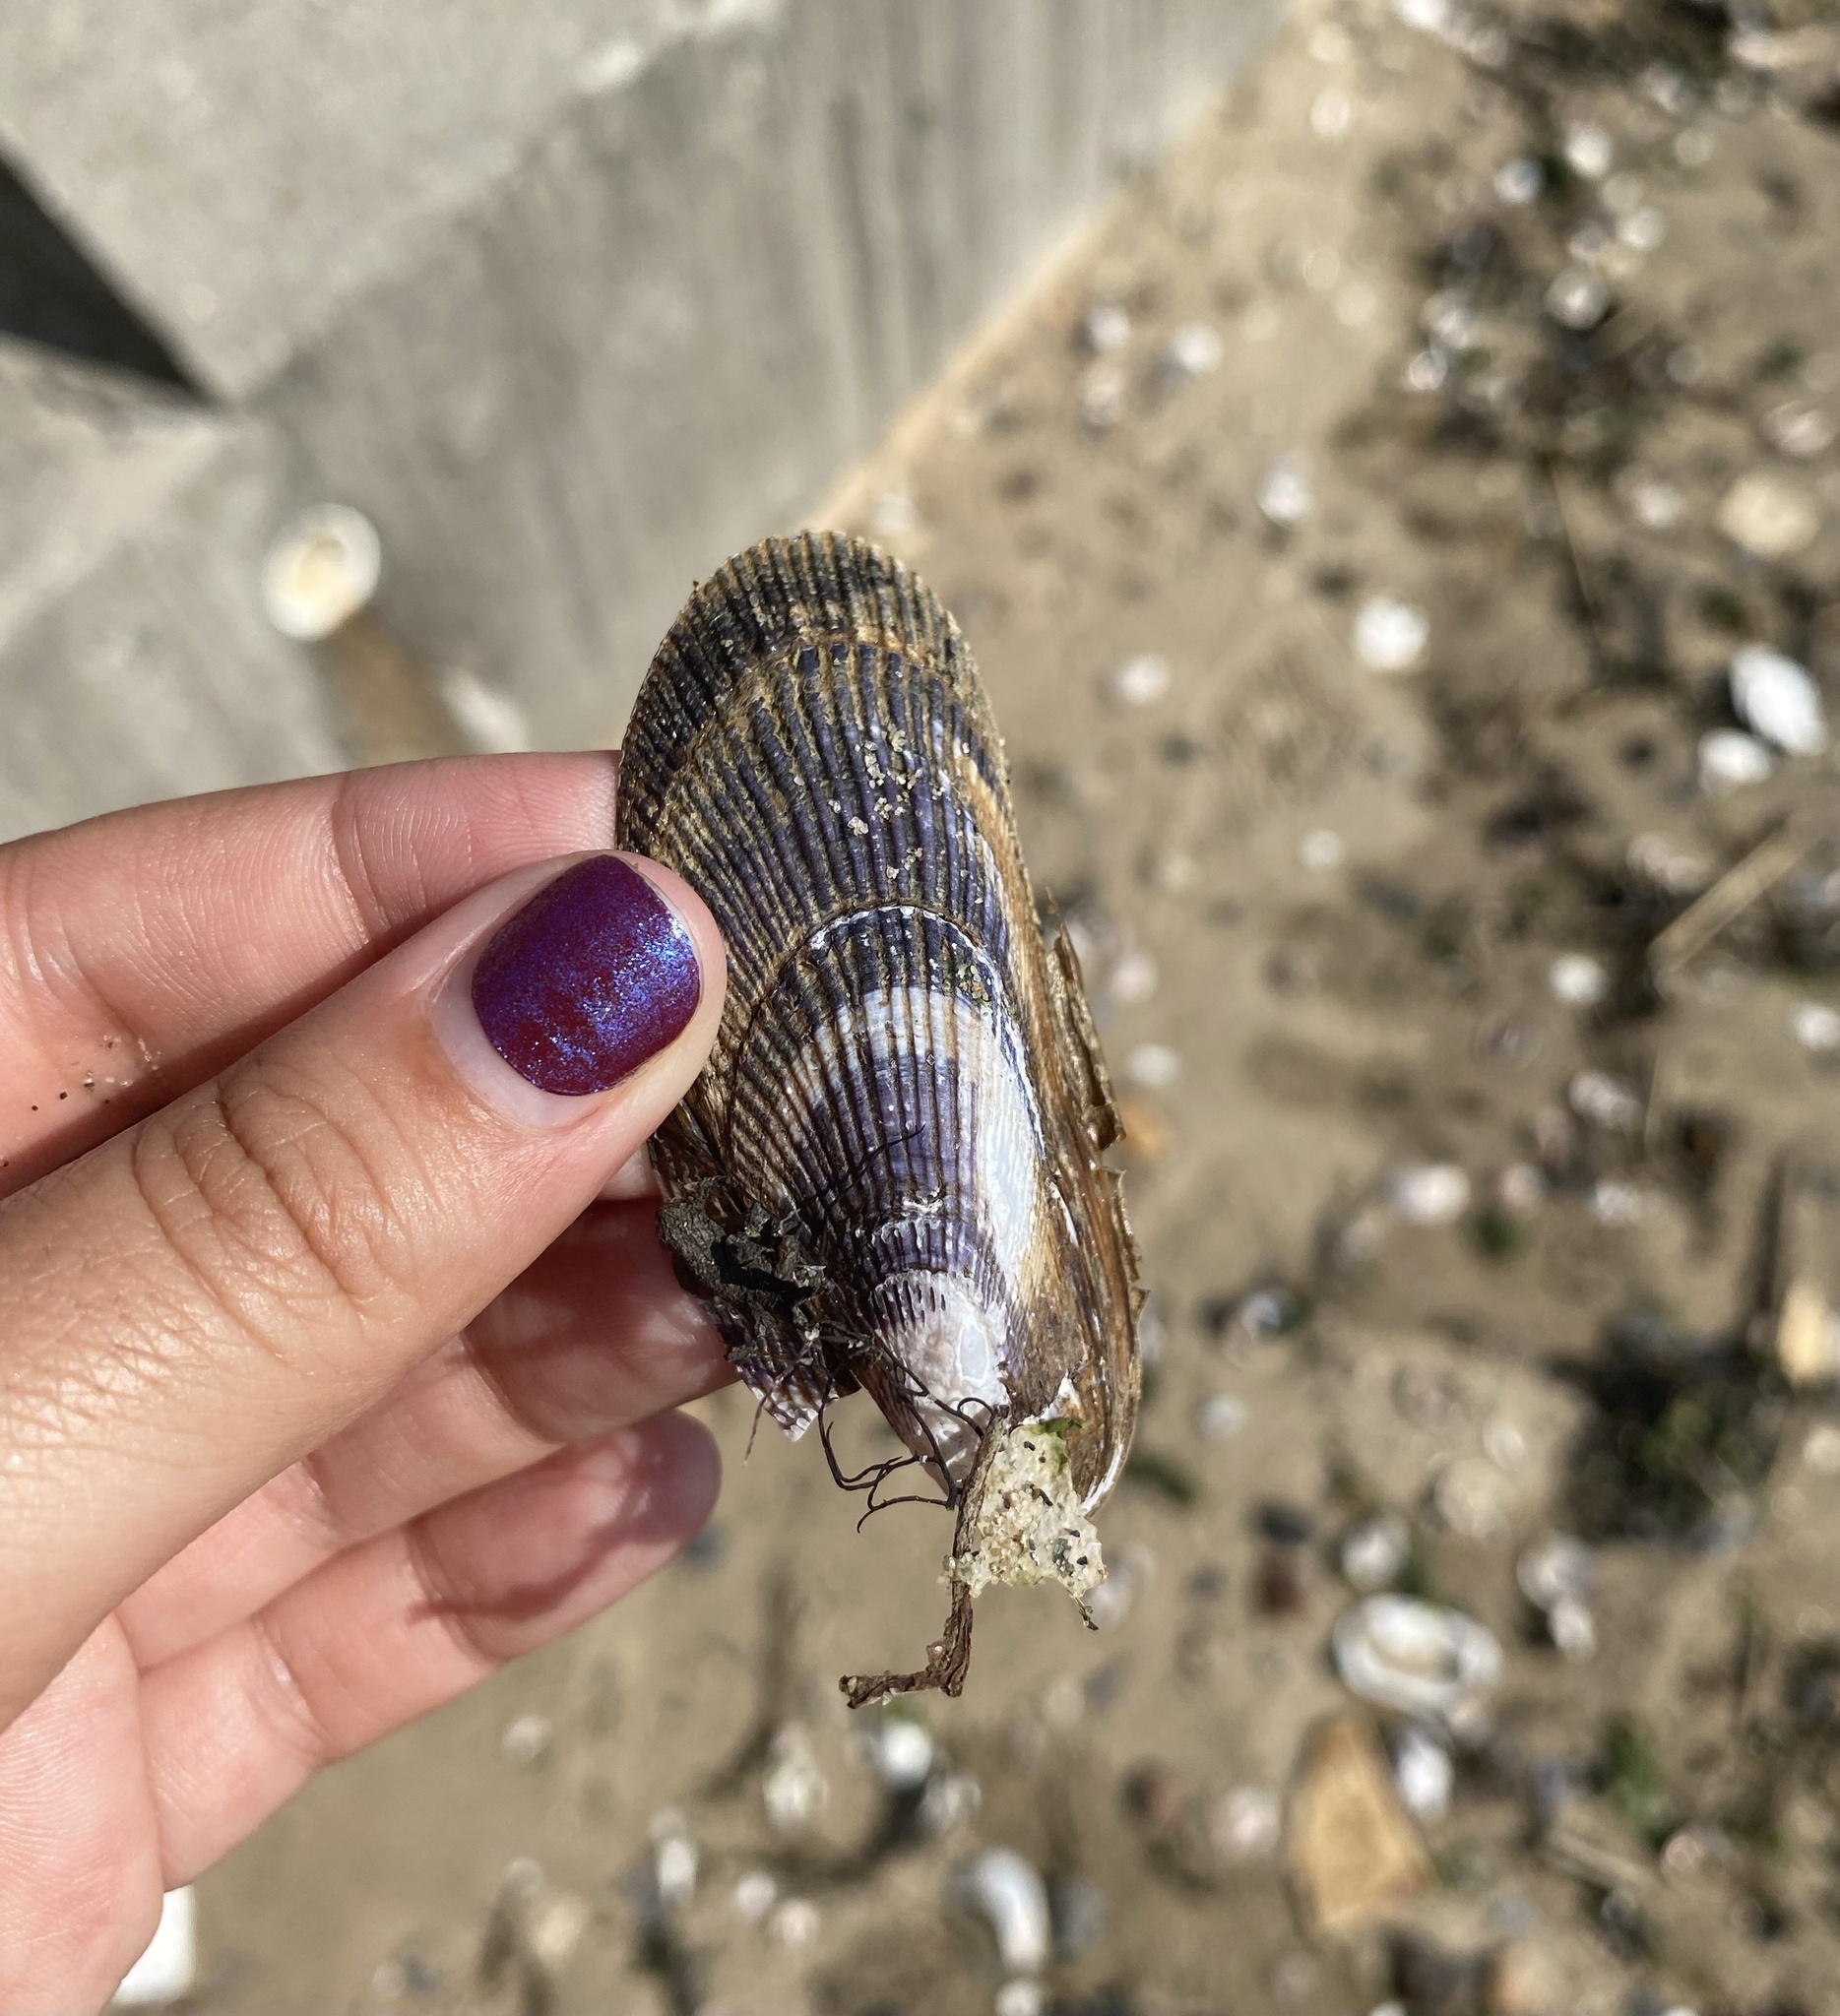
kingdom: Animalia
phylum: Mollusca
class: Bivalvia
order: Mytilida
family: Mytilidae
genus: Geukensia
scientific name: Geukensia demissa
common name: Ribbed mussel
